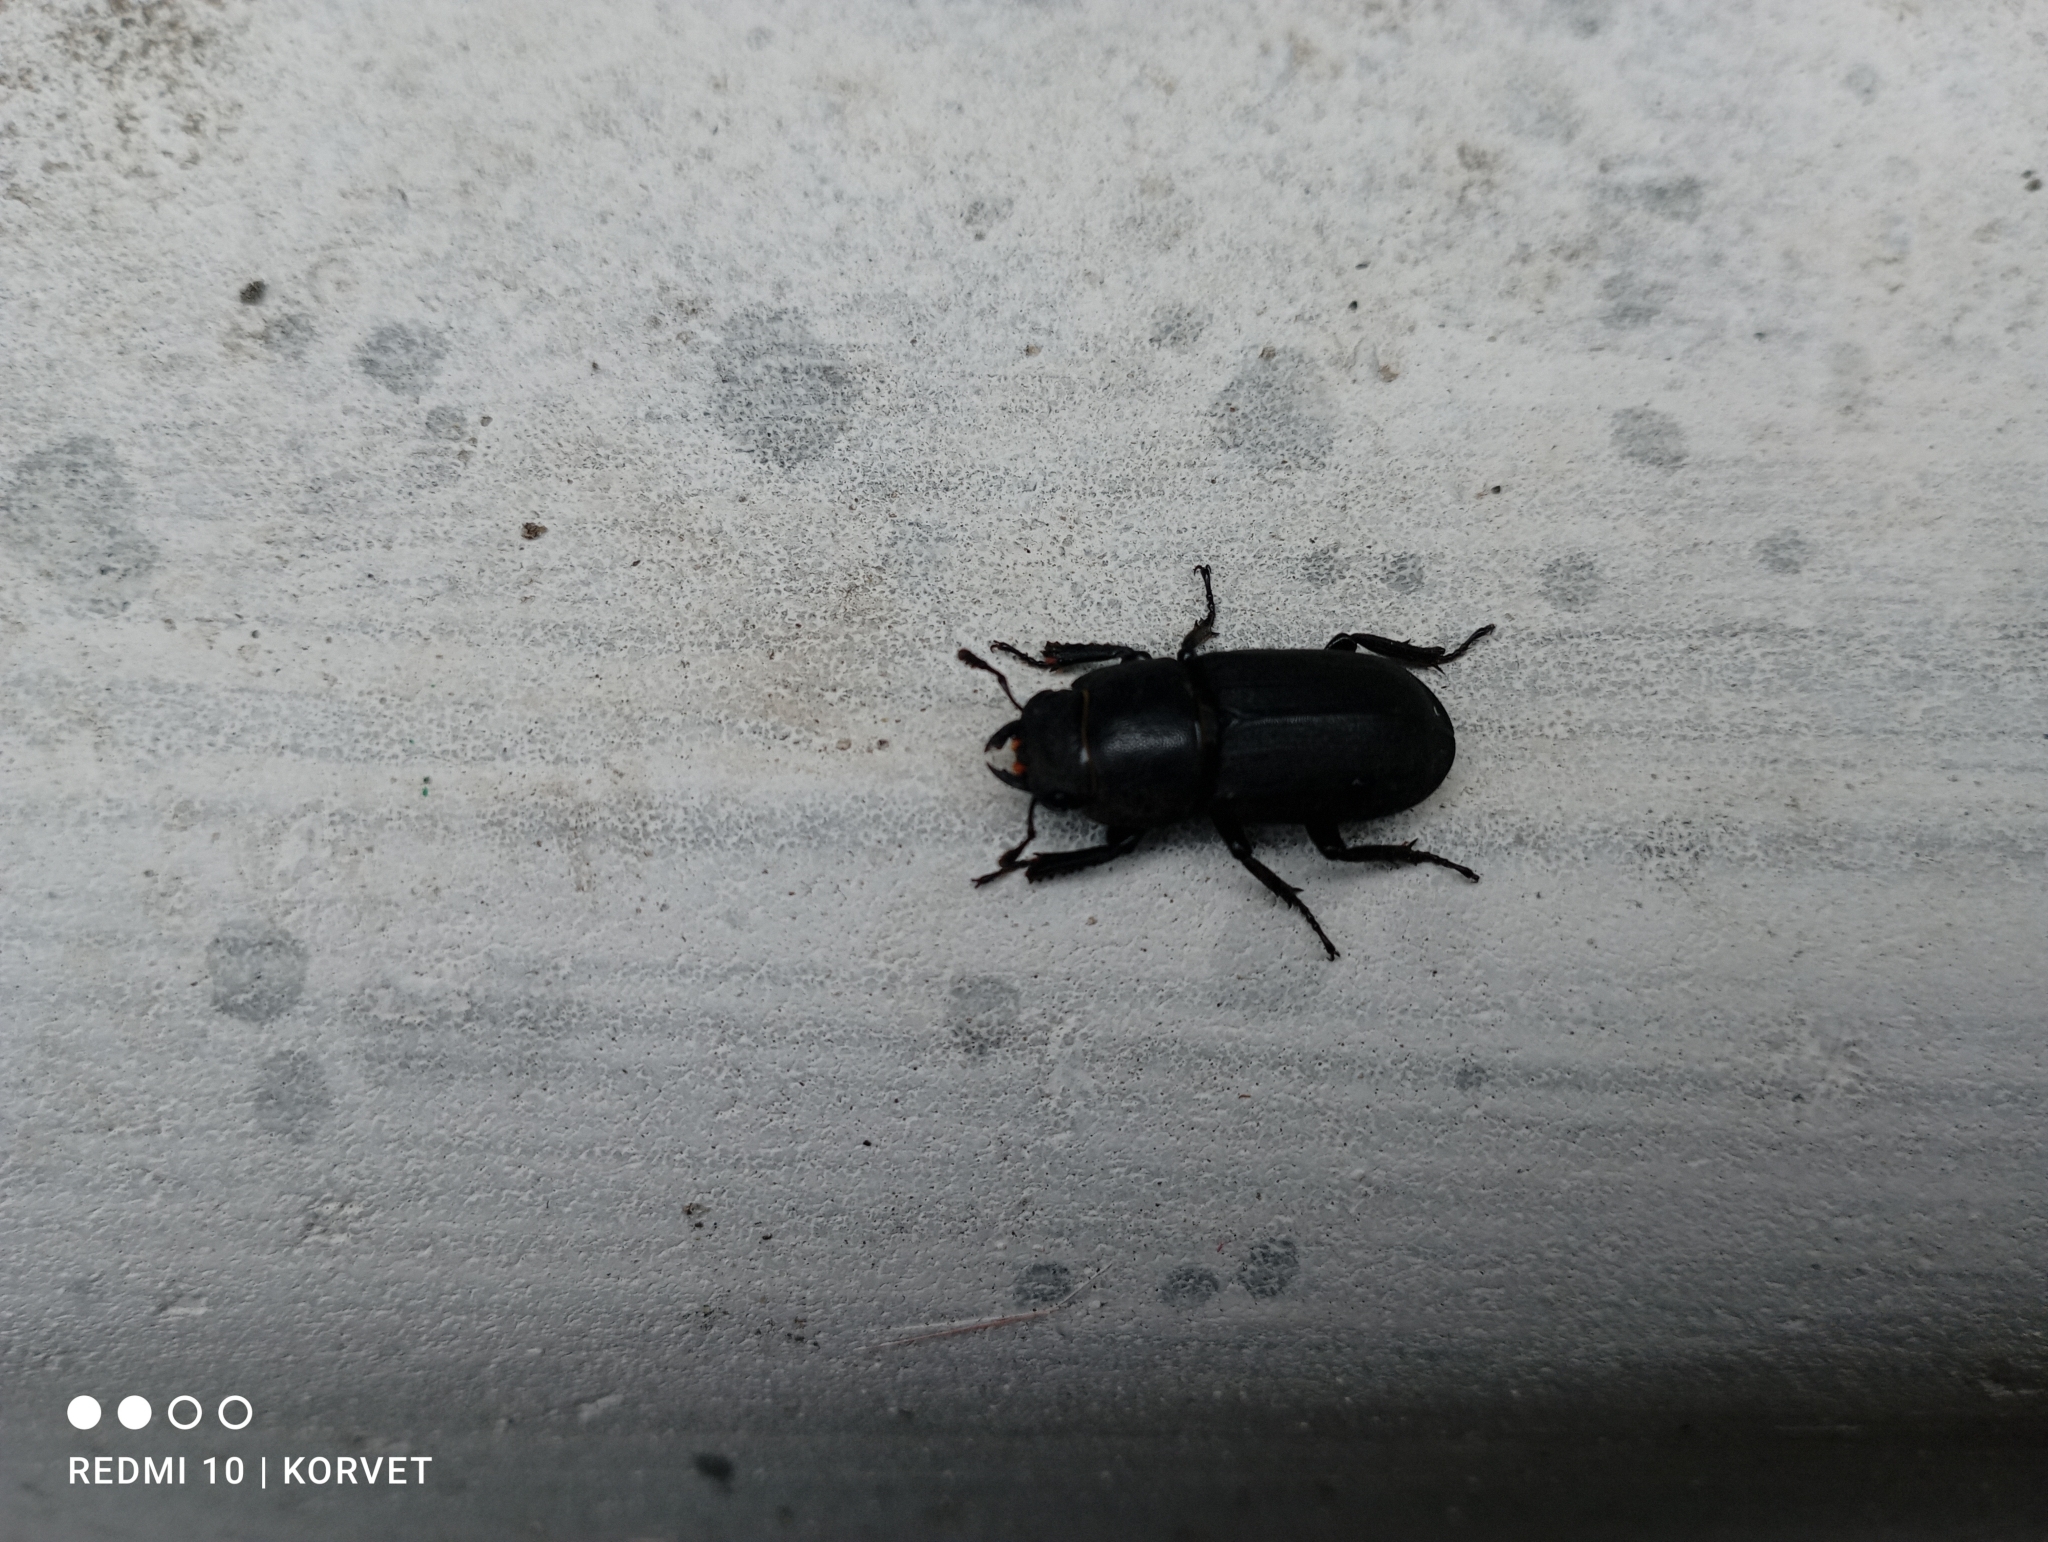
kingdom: Animalia
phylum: Arthropoda
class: Insecta
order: Coleoptera
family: Lucanidae
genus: Dorcus
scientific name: Dorcus parallelipipedus
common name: Lesser stag beetle
